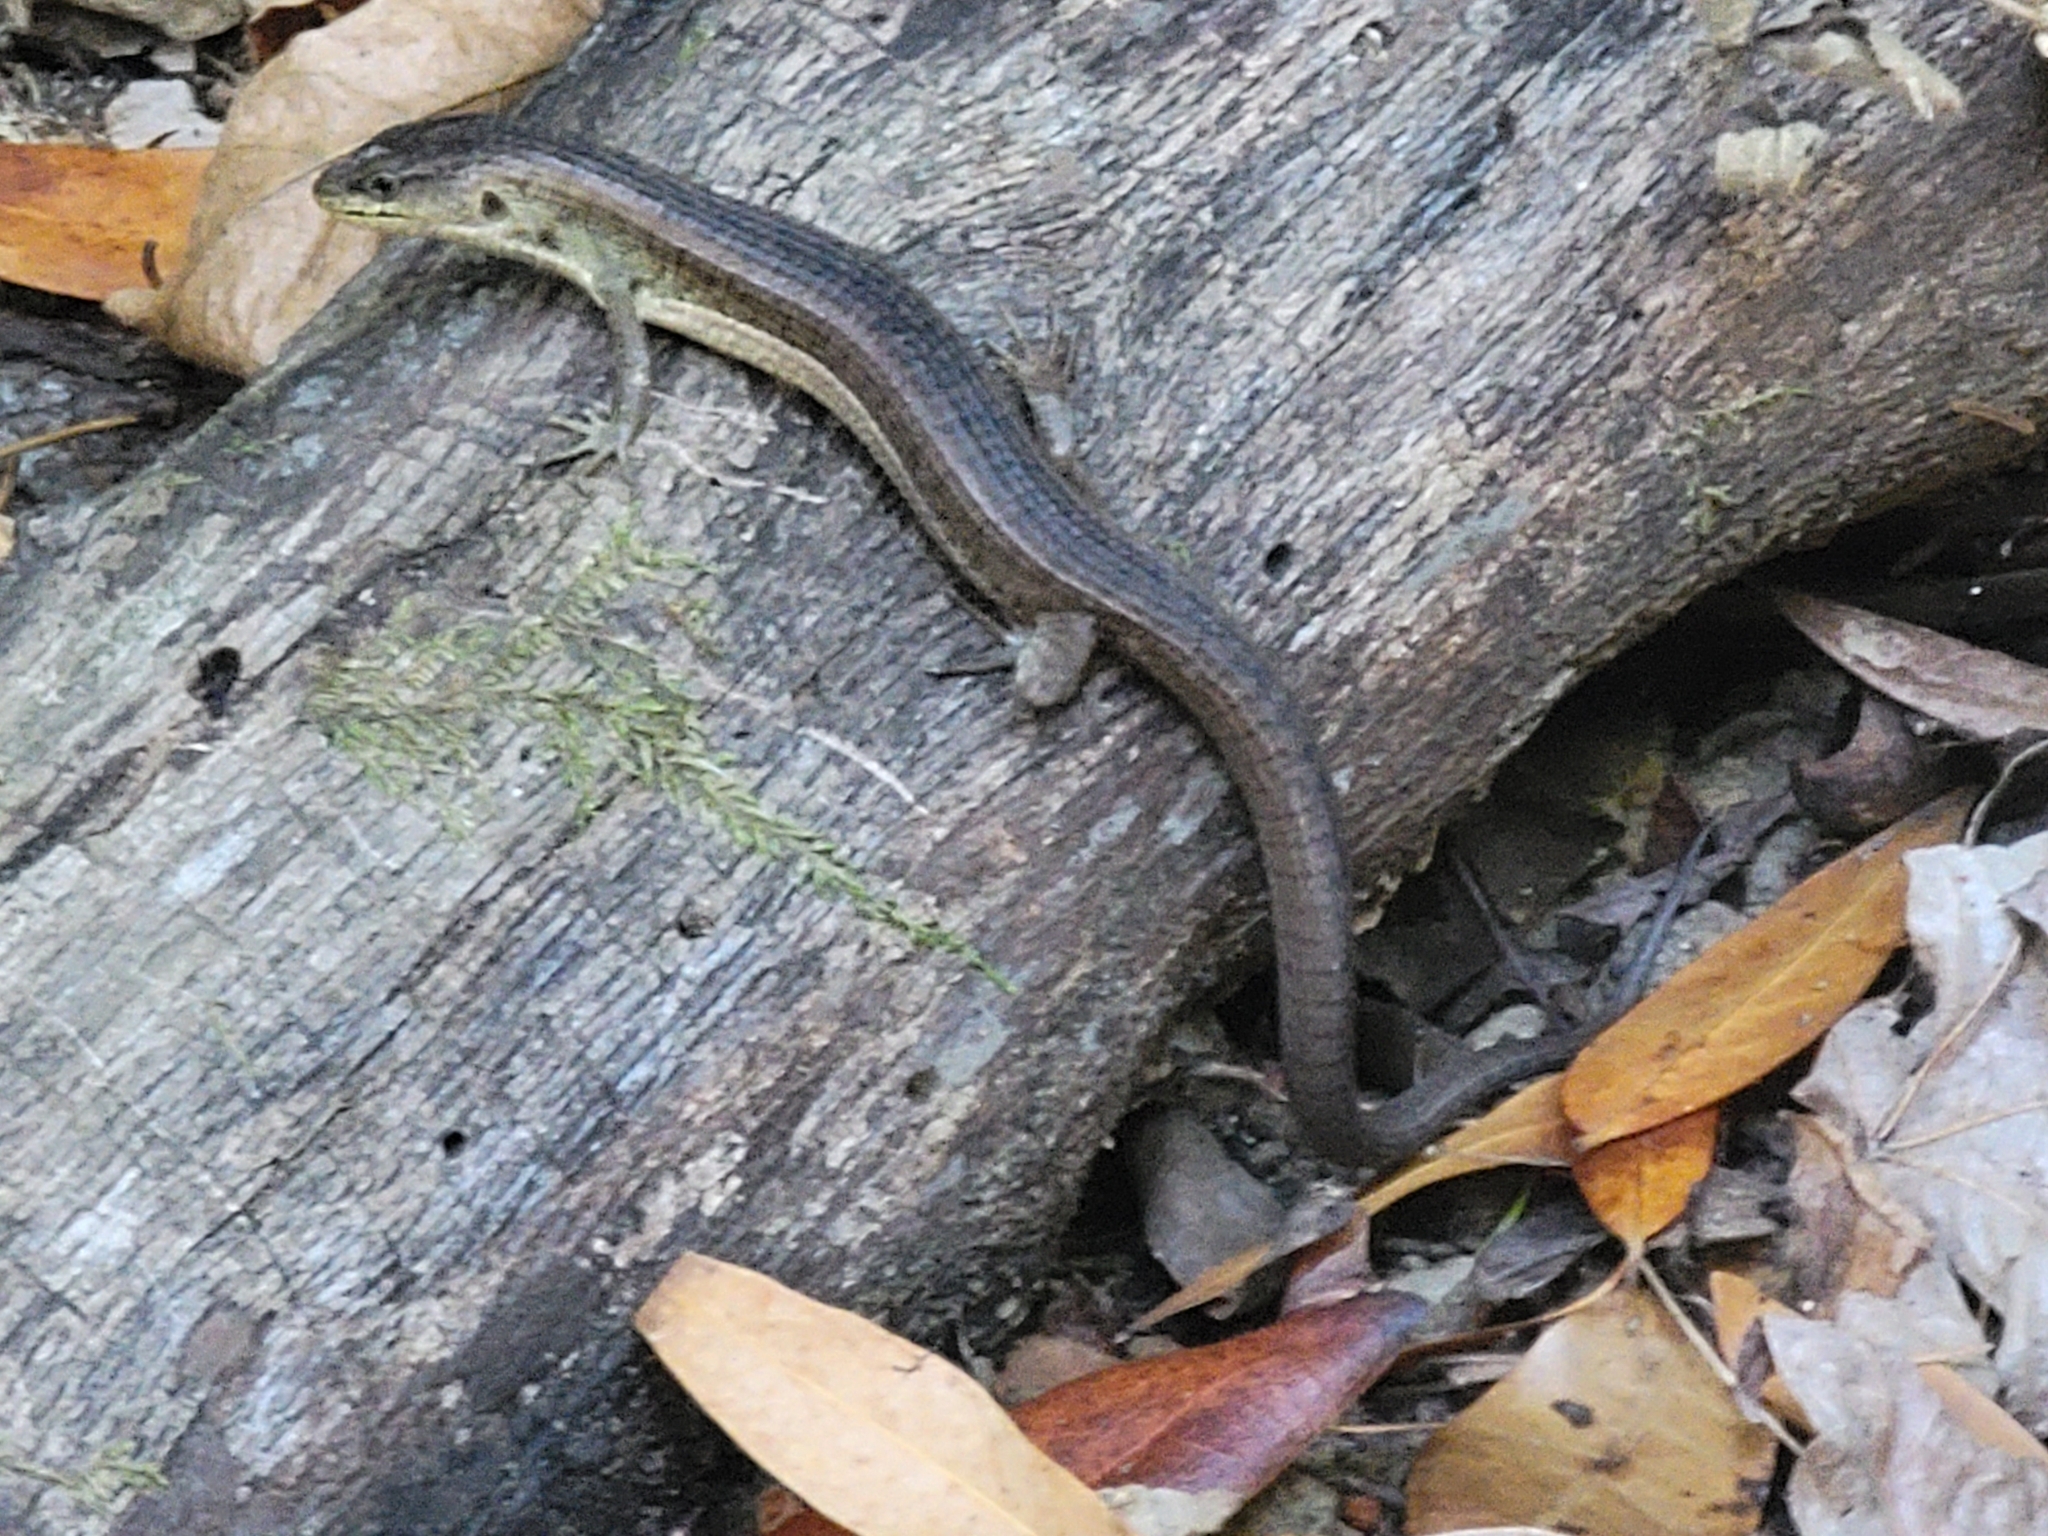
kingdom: Animalia
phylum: Chordata
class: Squamata
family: Anguidae
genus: Elgaria
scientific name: Elgaria coerulea
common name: Northern alligator lizard
